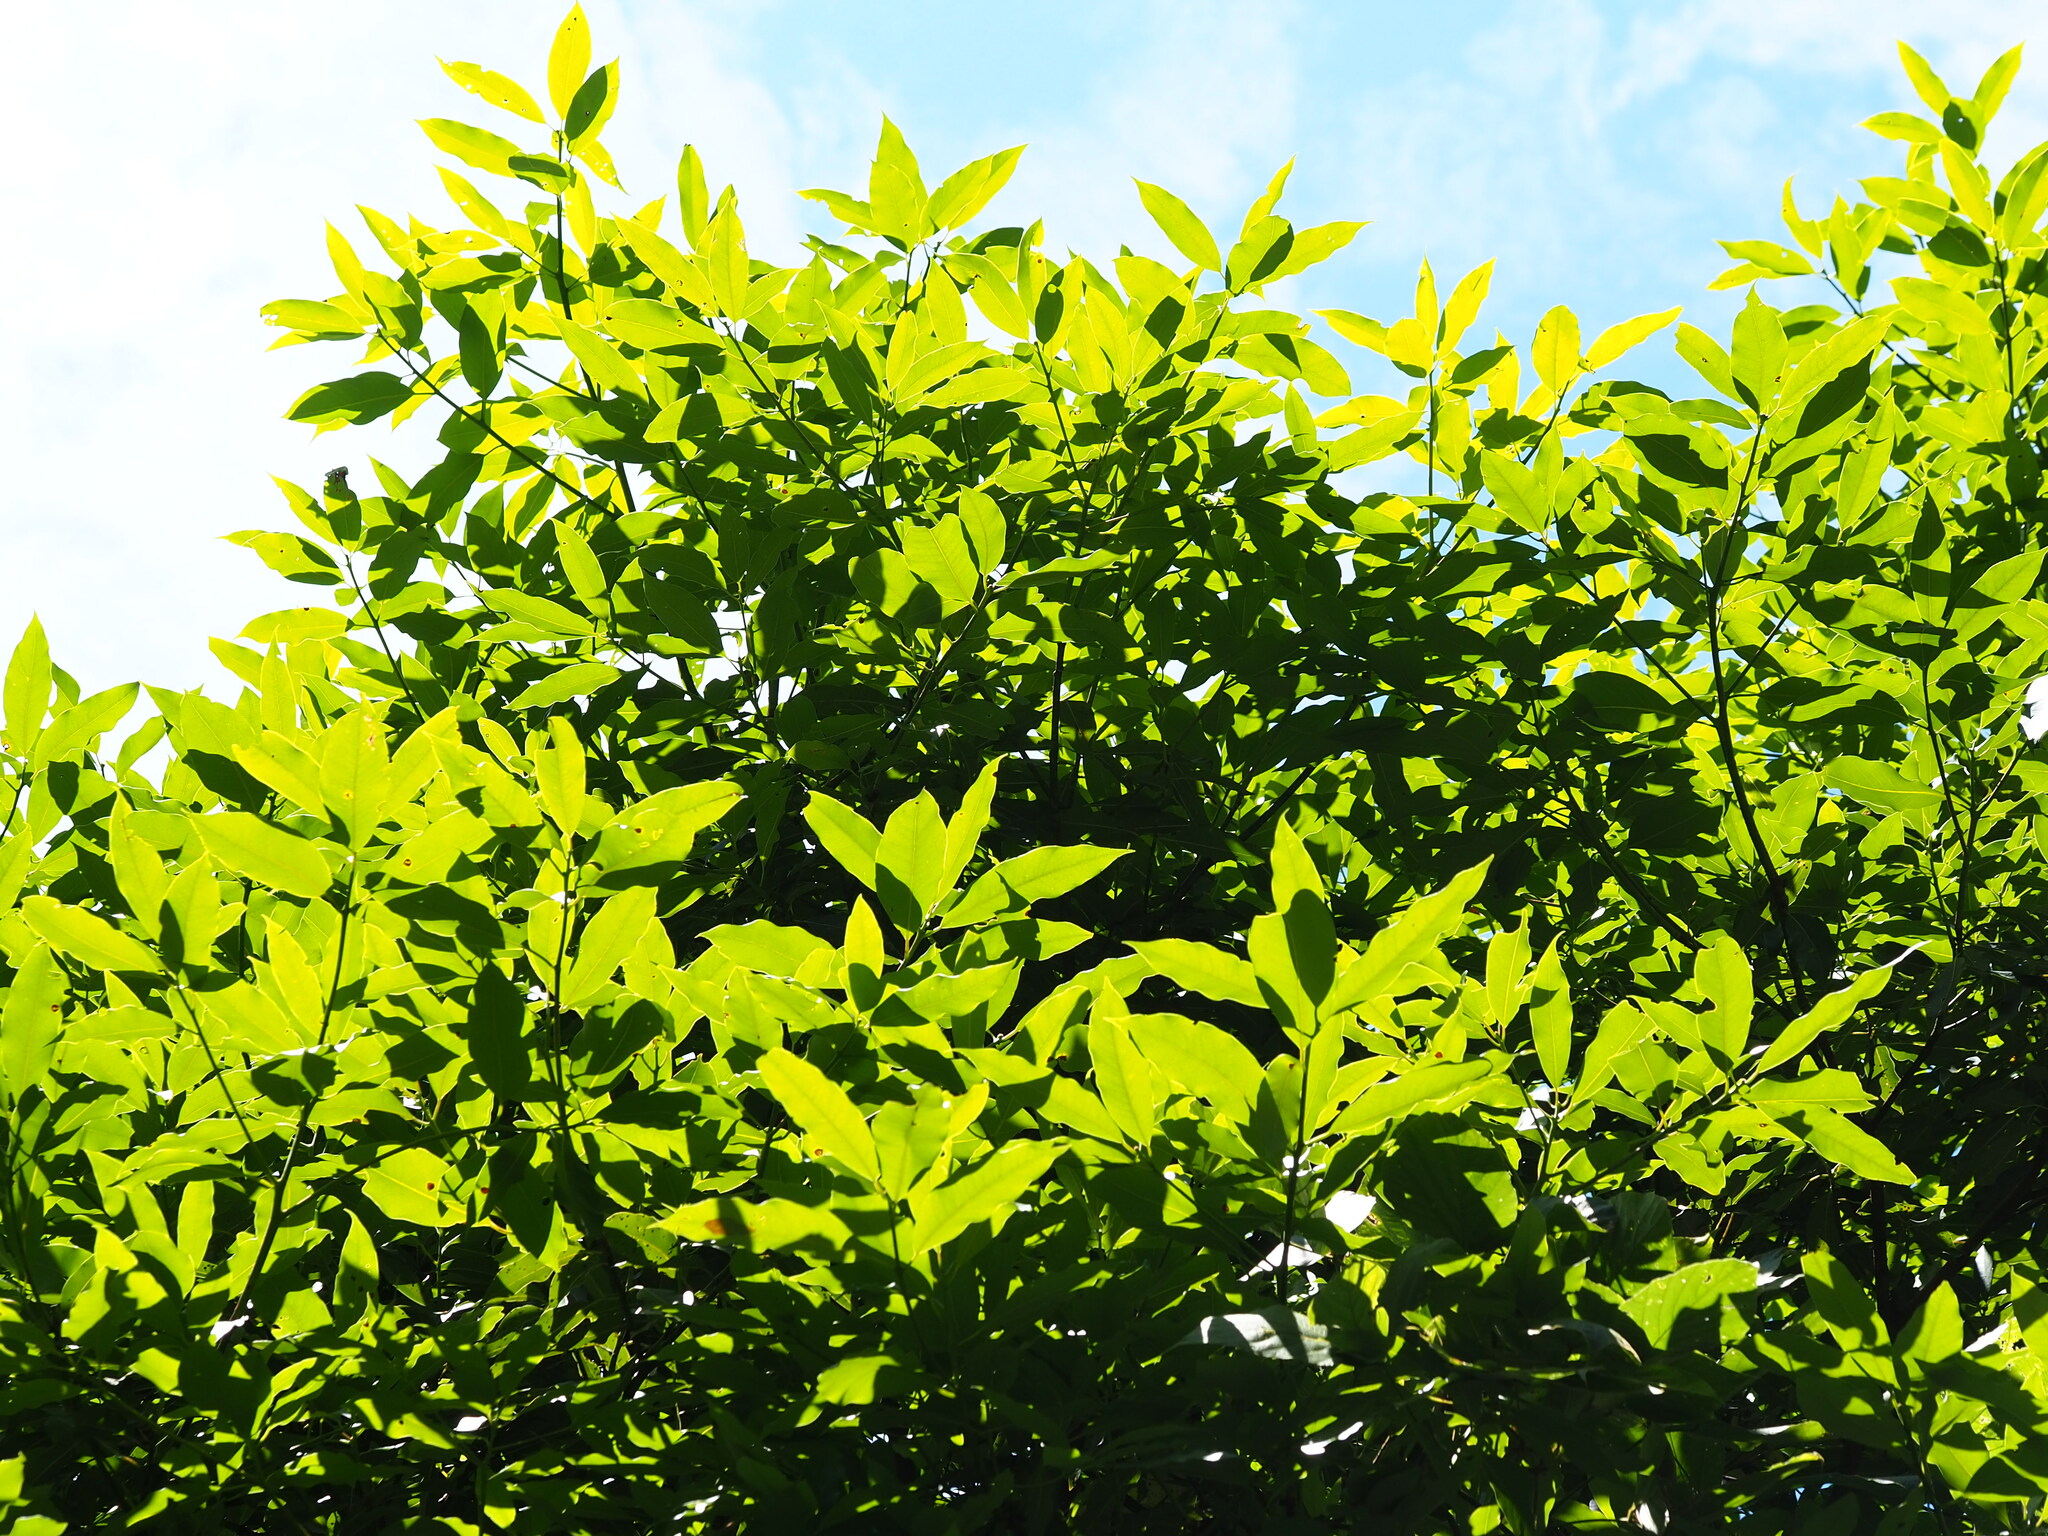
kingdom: Plantae
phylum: Tracheophyta
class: Magnoliopsida
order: Laurales
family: Lauraceae
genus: Machilus
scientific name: Machilus japonica
